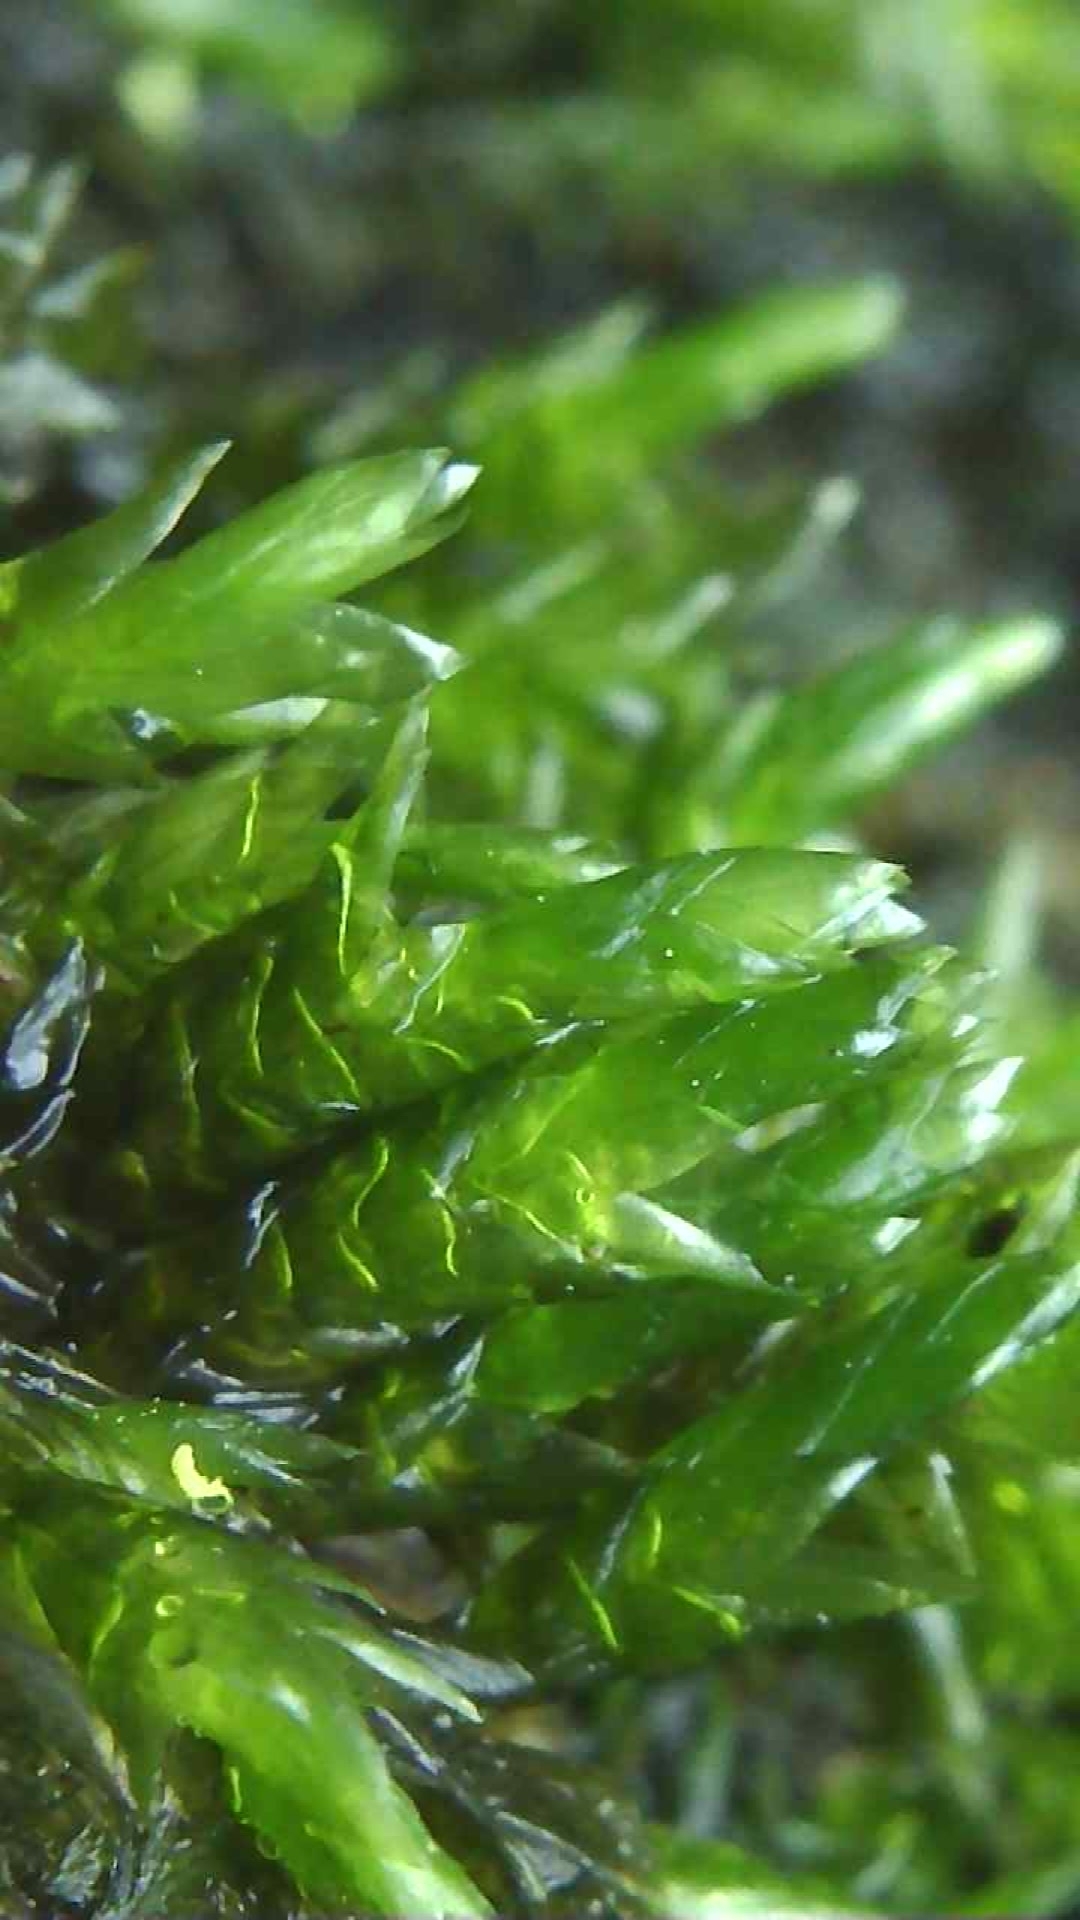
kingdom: Plantae
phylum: Bryophyta
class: Bryopsida
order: Hypnales
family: Brachytheciaceae
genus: Rhynchostegium
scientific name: Rhynchostegium riparioides
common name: Platyhypnidium moss
